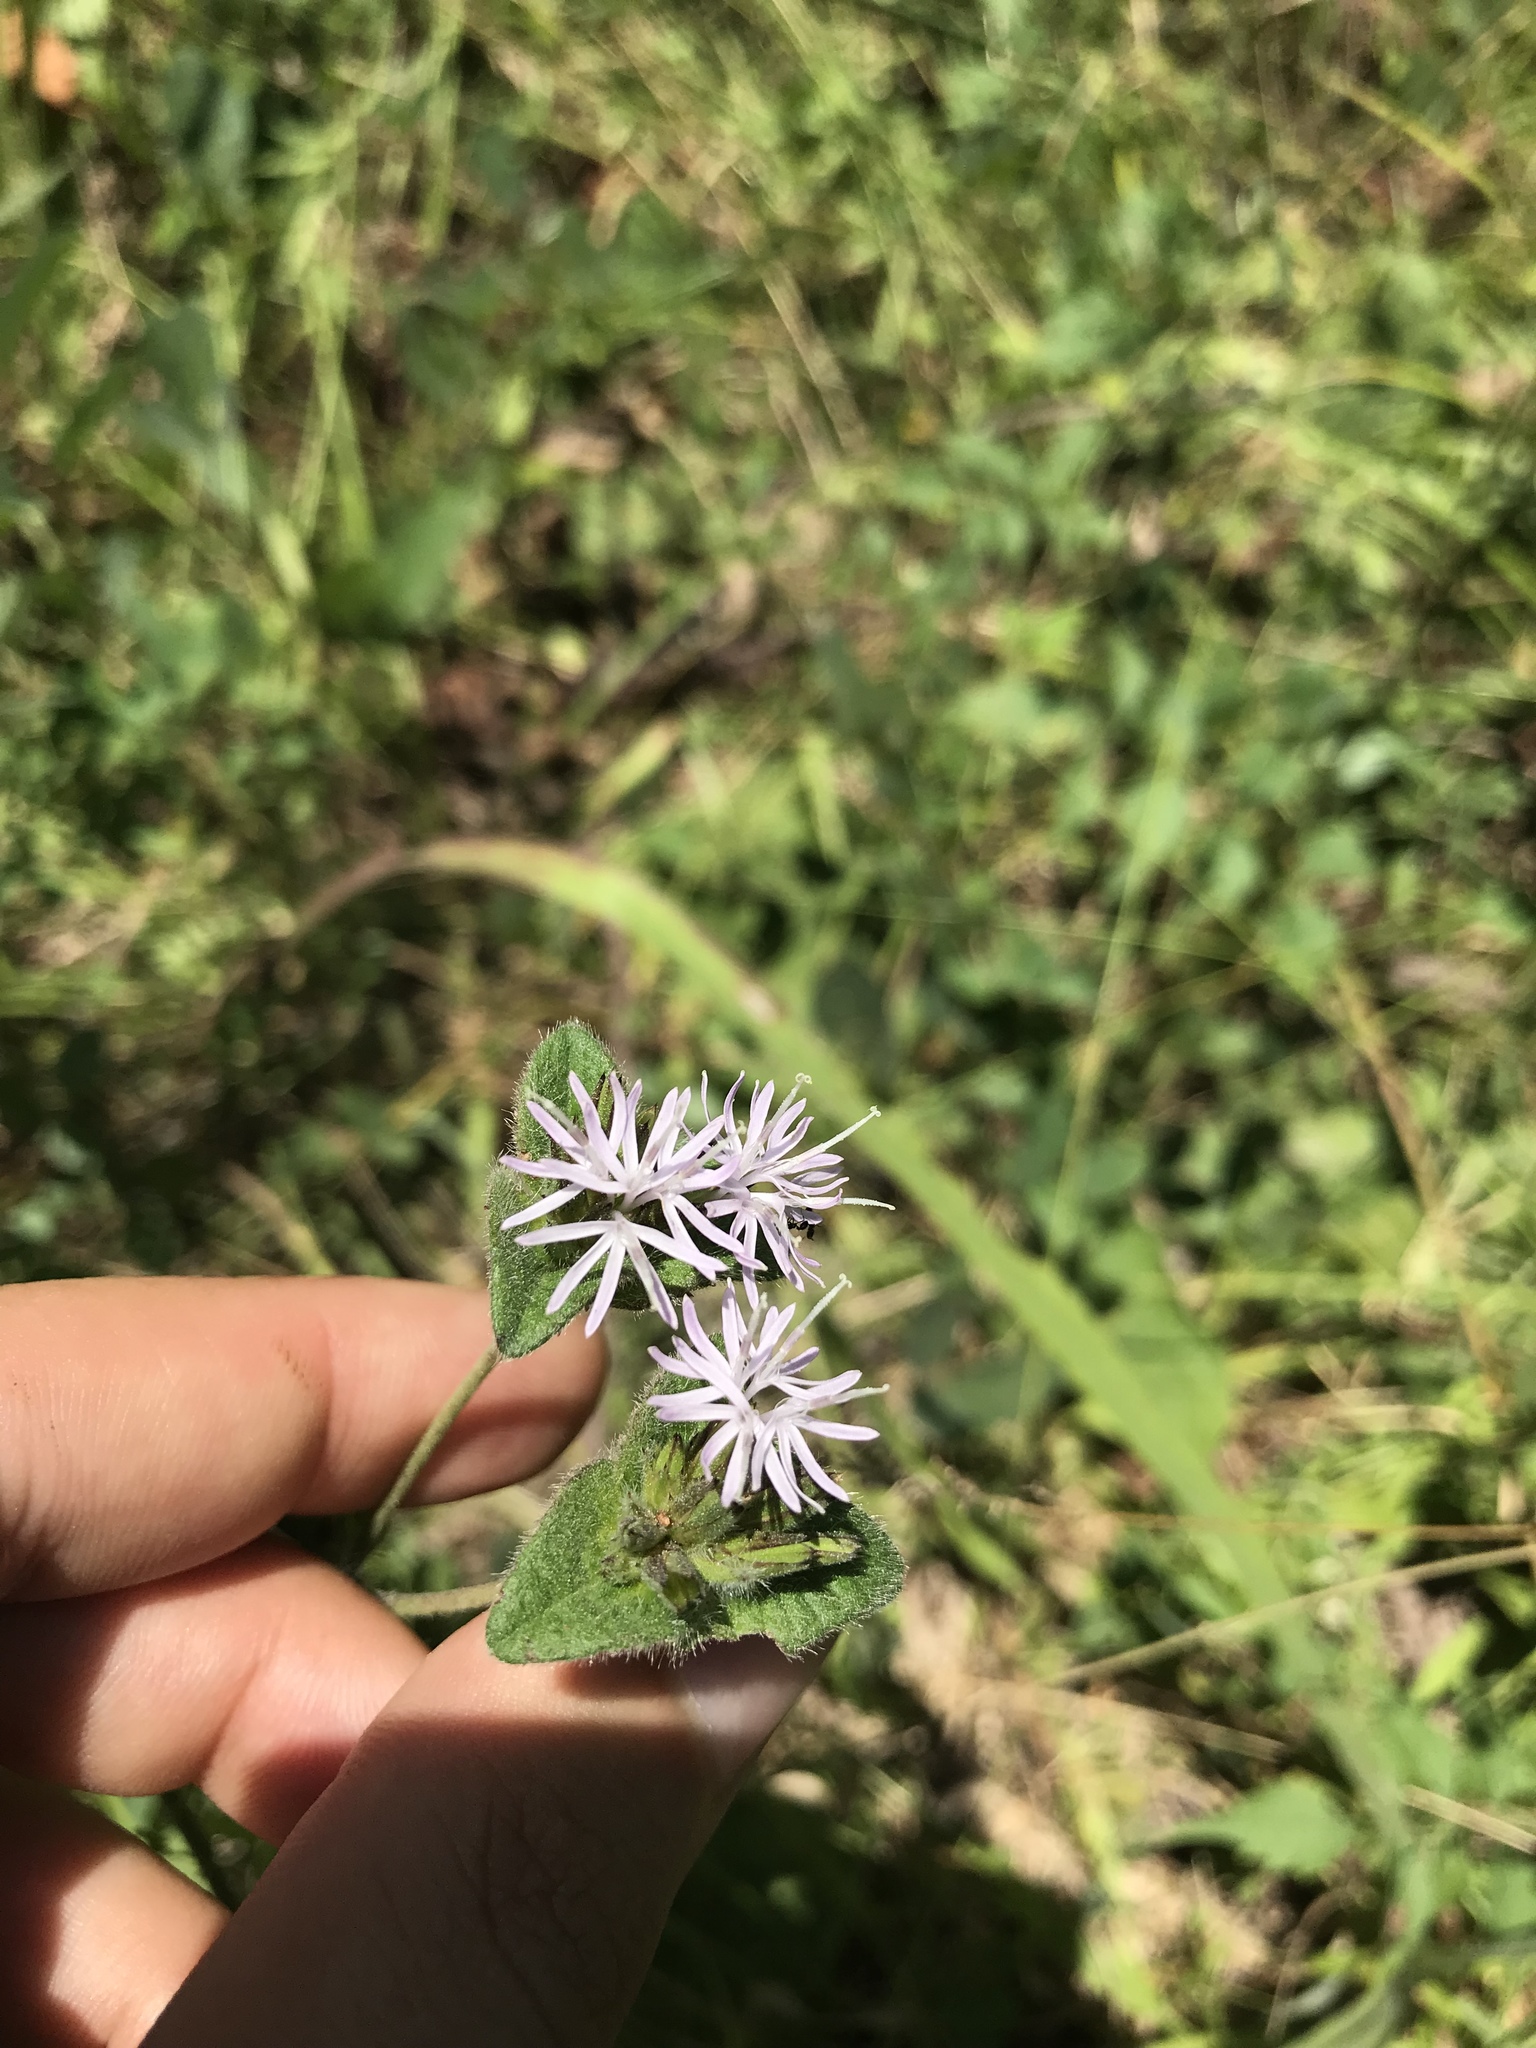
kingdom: Plantae
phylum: Tracheophyta
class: Magnoliopsida
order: Asterales
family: Asteraceae
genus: Elephantopus
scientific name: Elephantopus tomentosus
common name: Tobacco-weed
